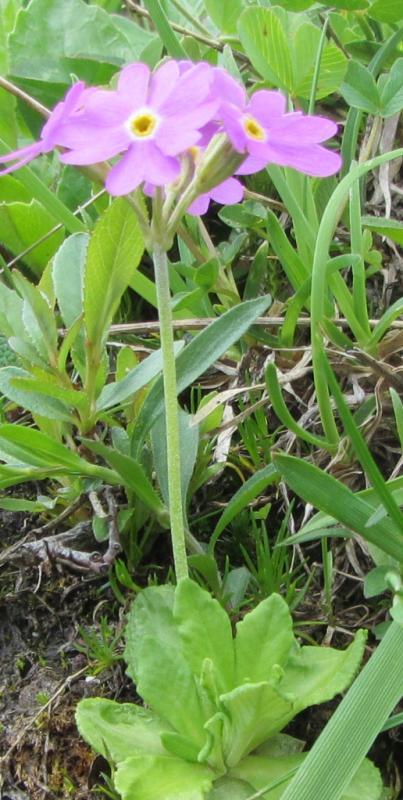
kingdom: Plantae
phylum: Tracheophyta
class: Magnoliopsida
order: Ericales
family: Primulaceae
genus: Primula
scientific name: Primula farinosa
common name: Bird's-eye primrose
